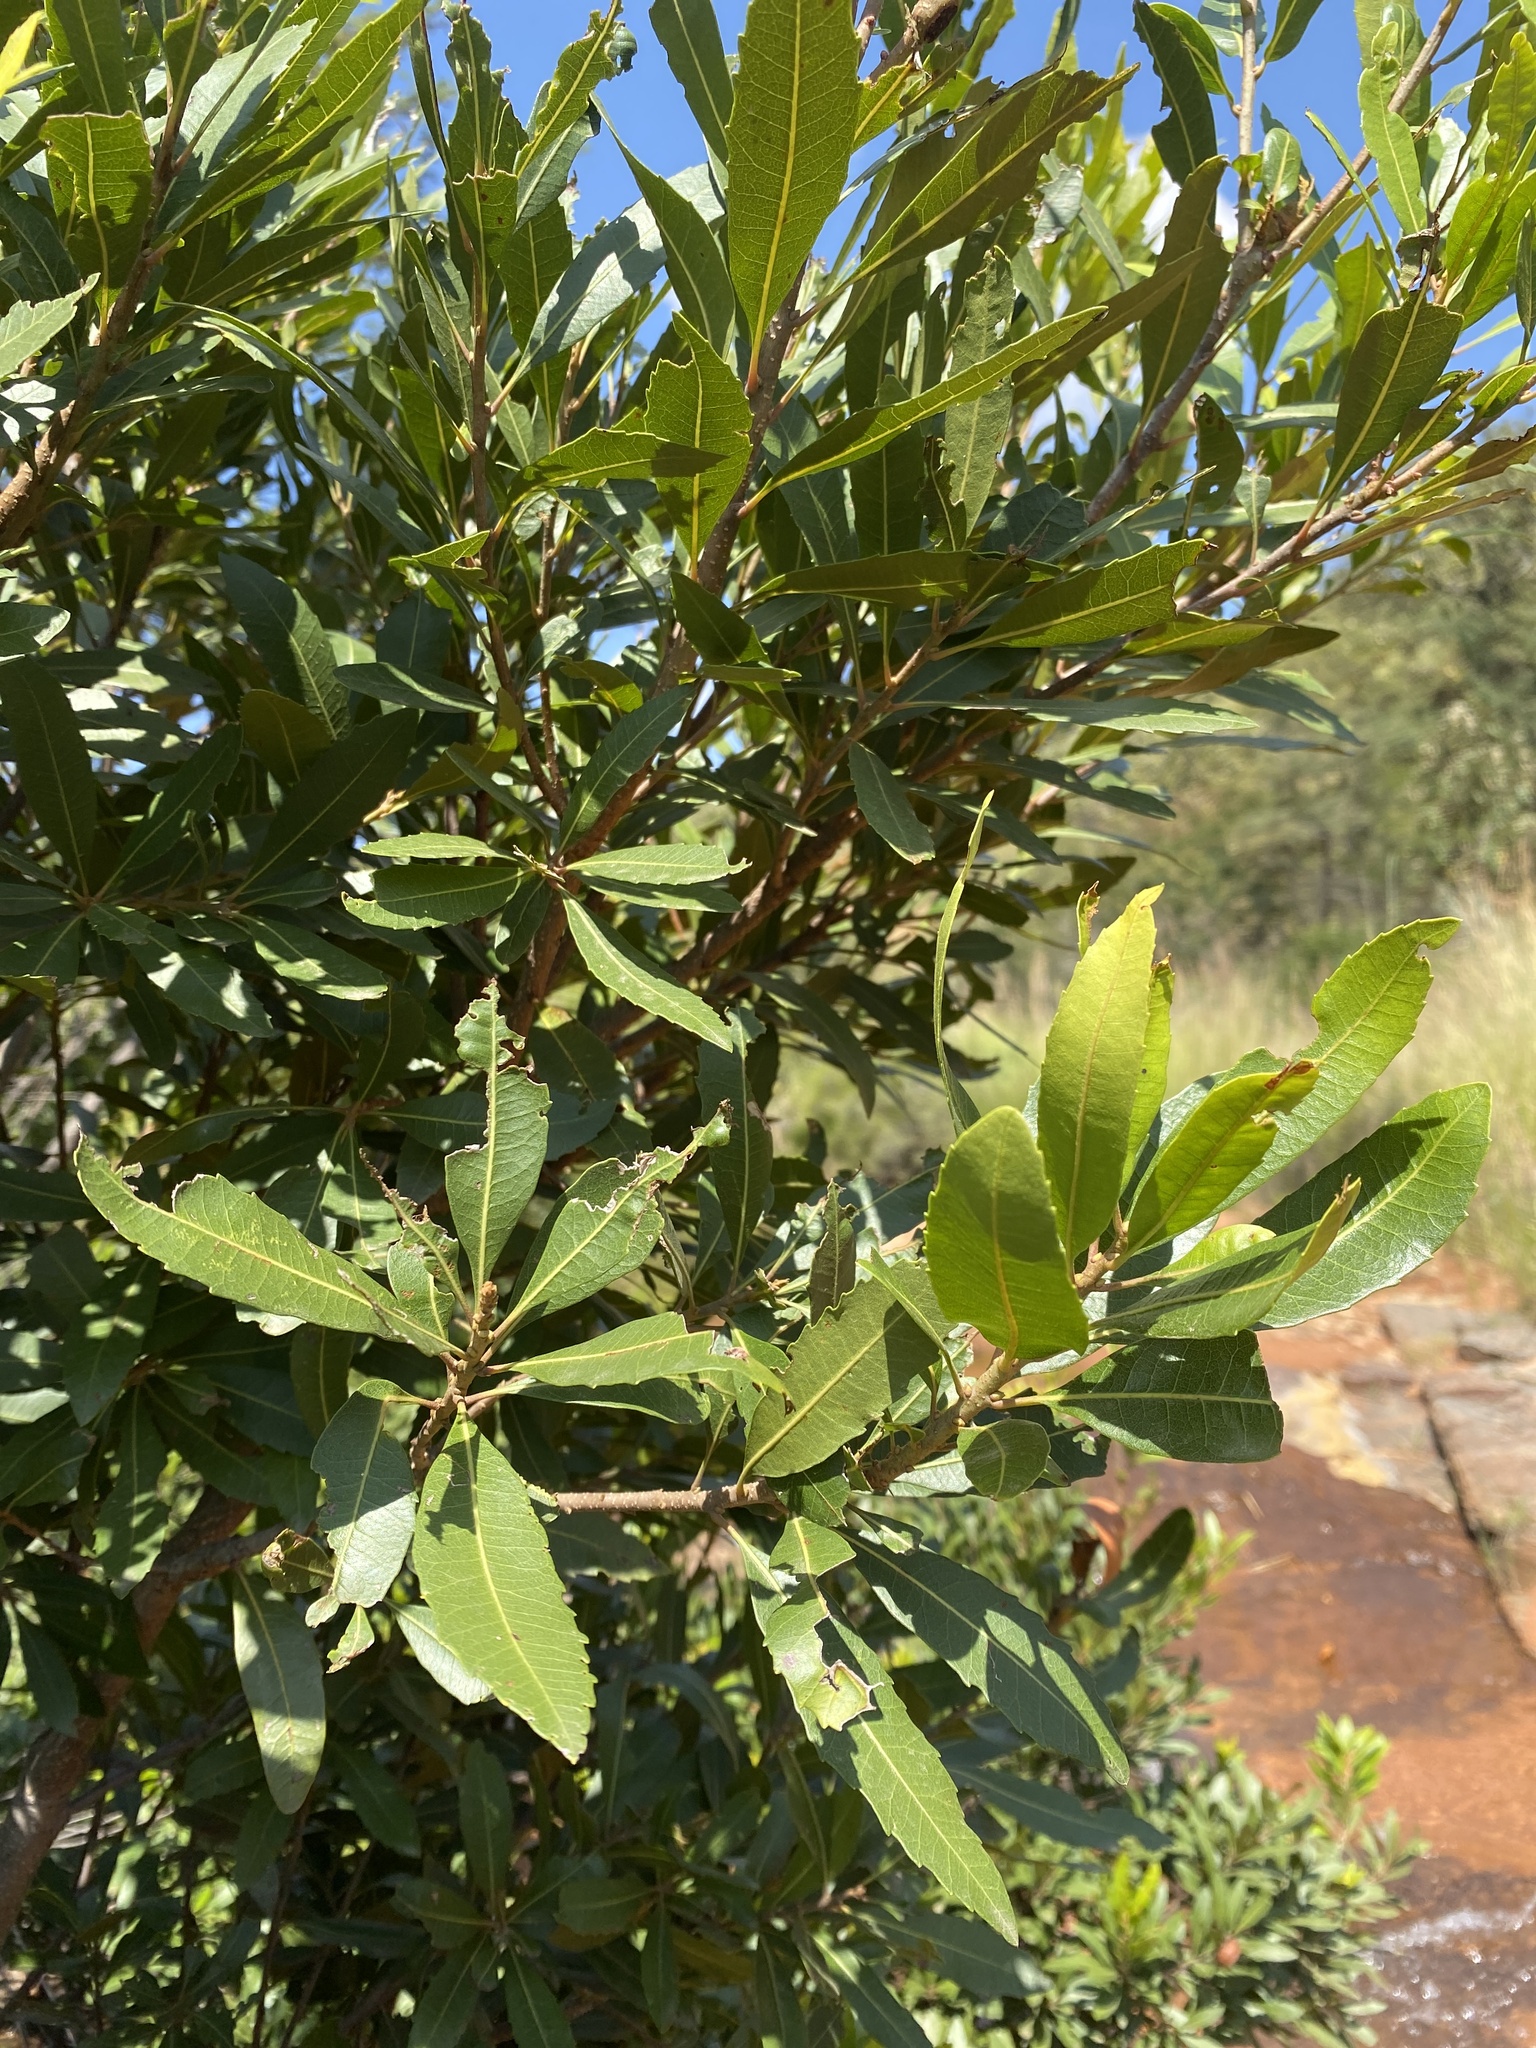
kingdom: Plantae
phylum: Tracheophyta
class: Magnoliopsida
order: Fagales
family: Myricaceae
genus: Morella
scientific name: Morella serrata
